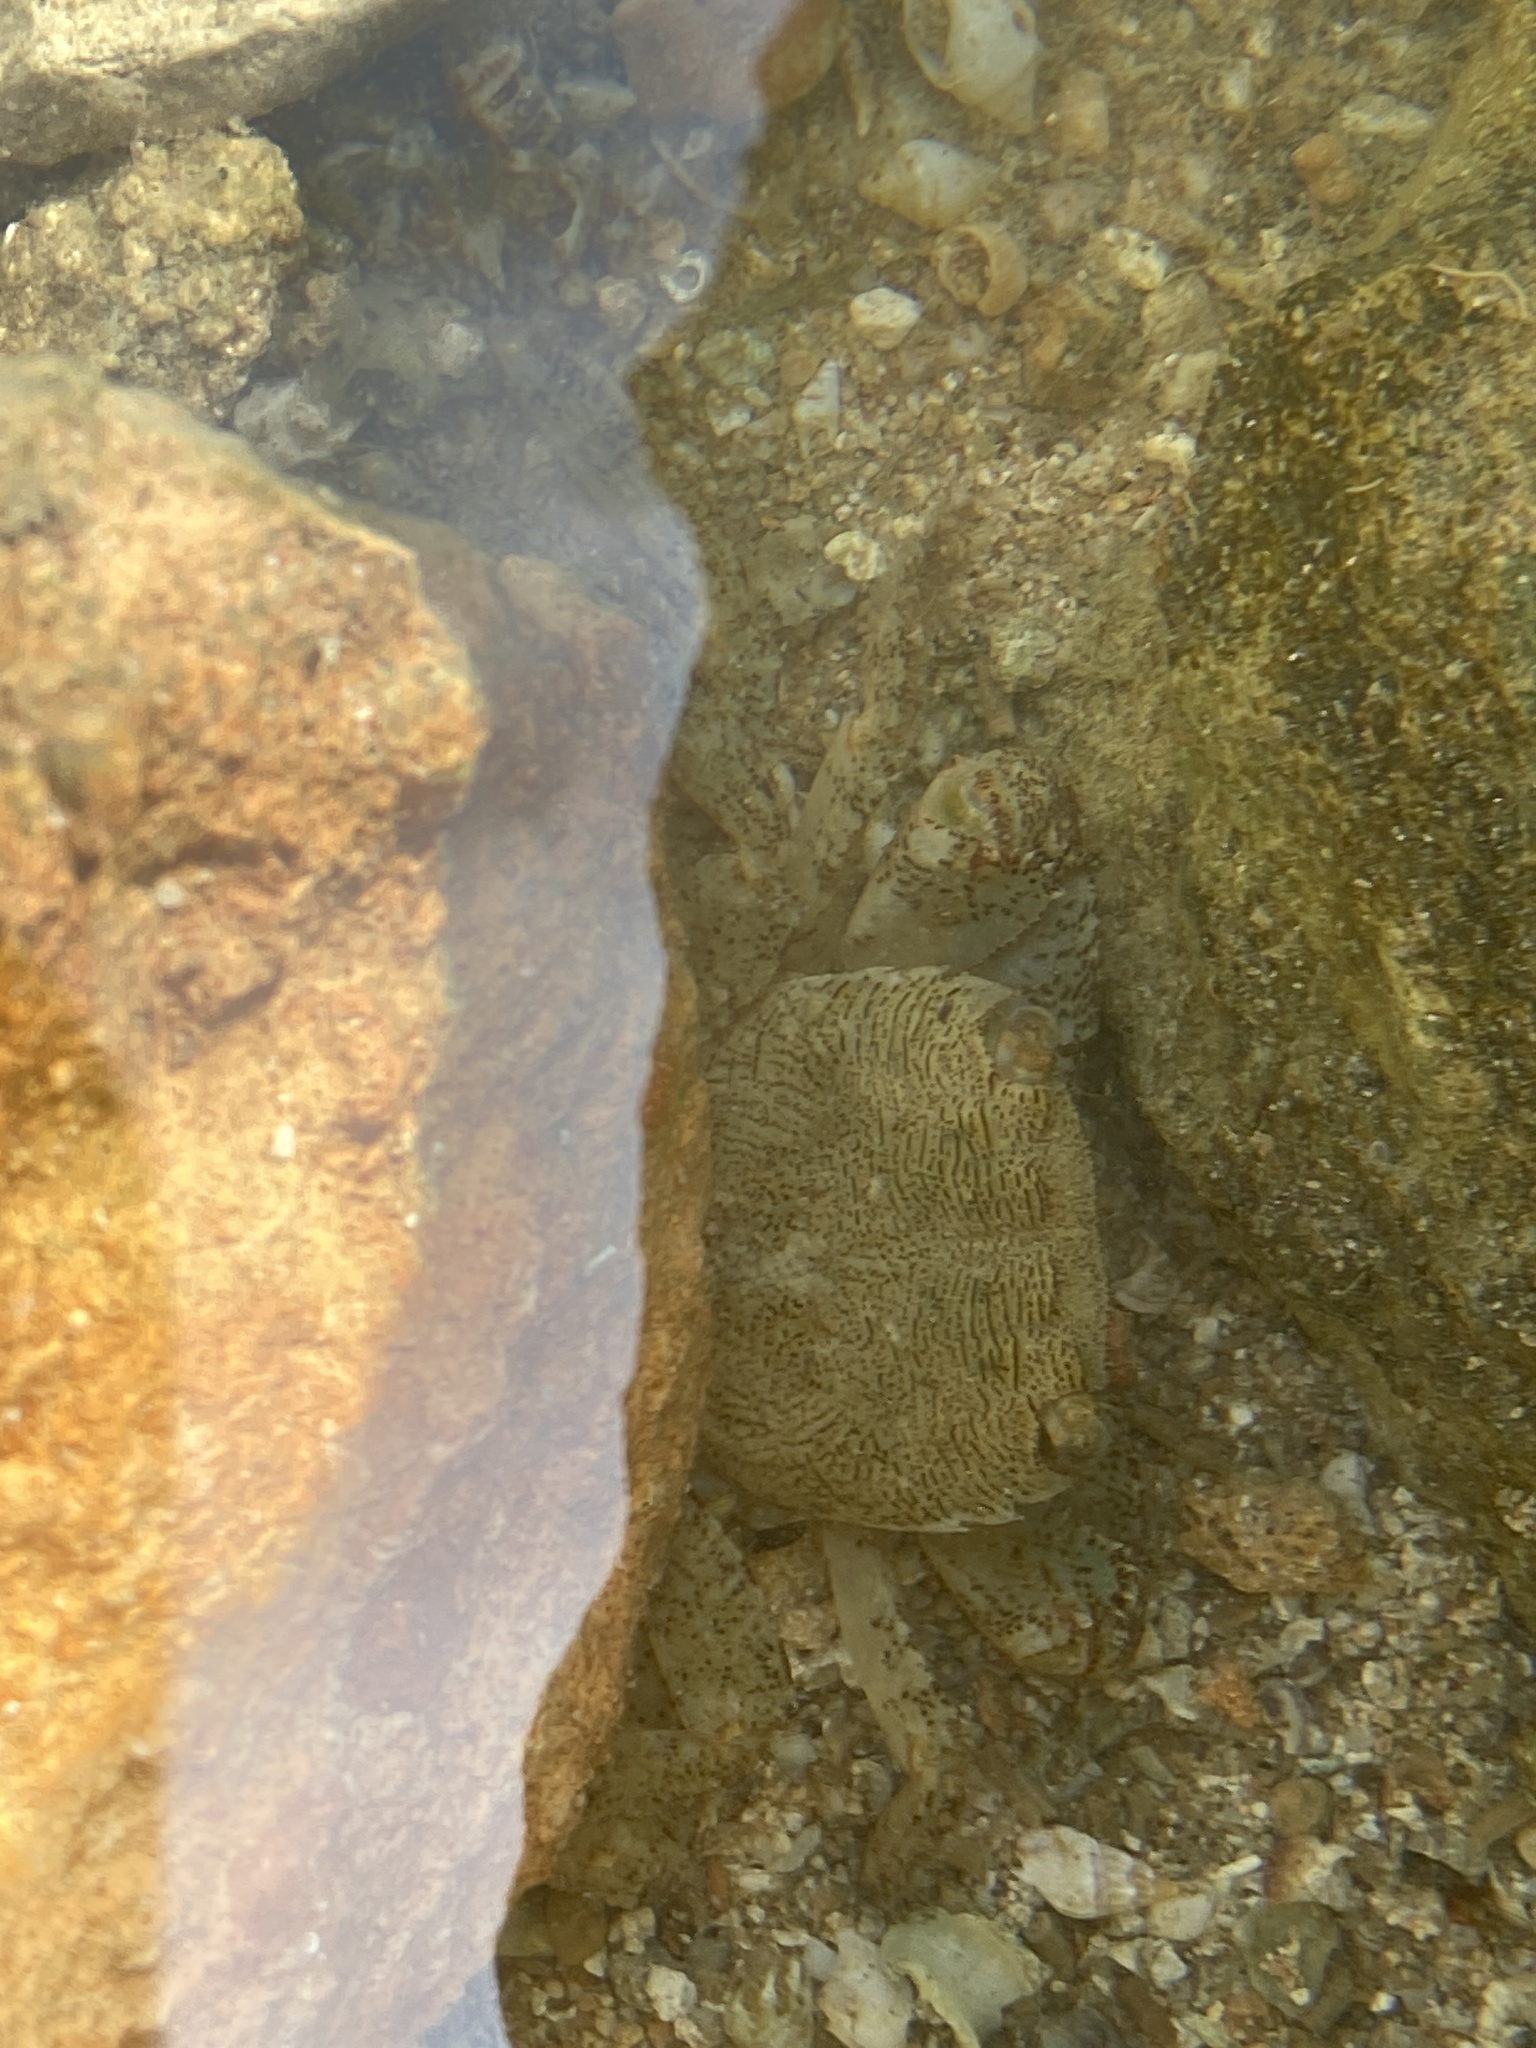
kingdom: Animalia
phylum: Arthropoda
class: Malacostraca
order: Decapoda
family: Grapsidae
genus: Pachygrapsus
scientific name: Pachygrapsus marmoratus
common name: Marbled rock crab
